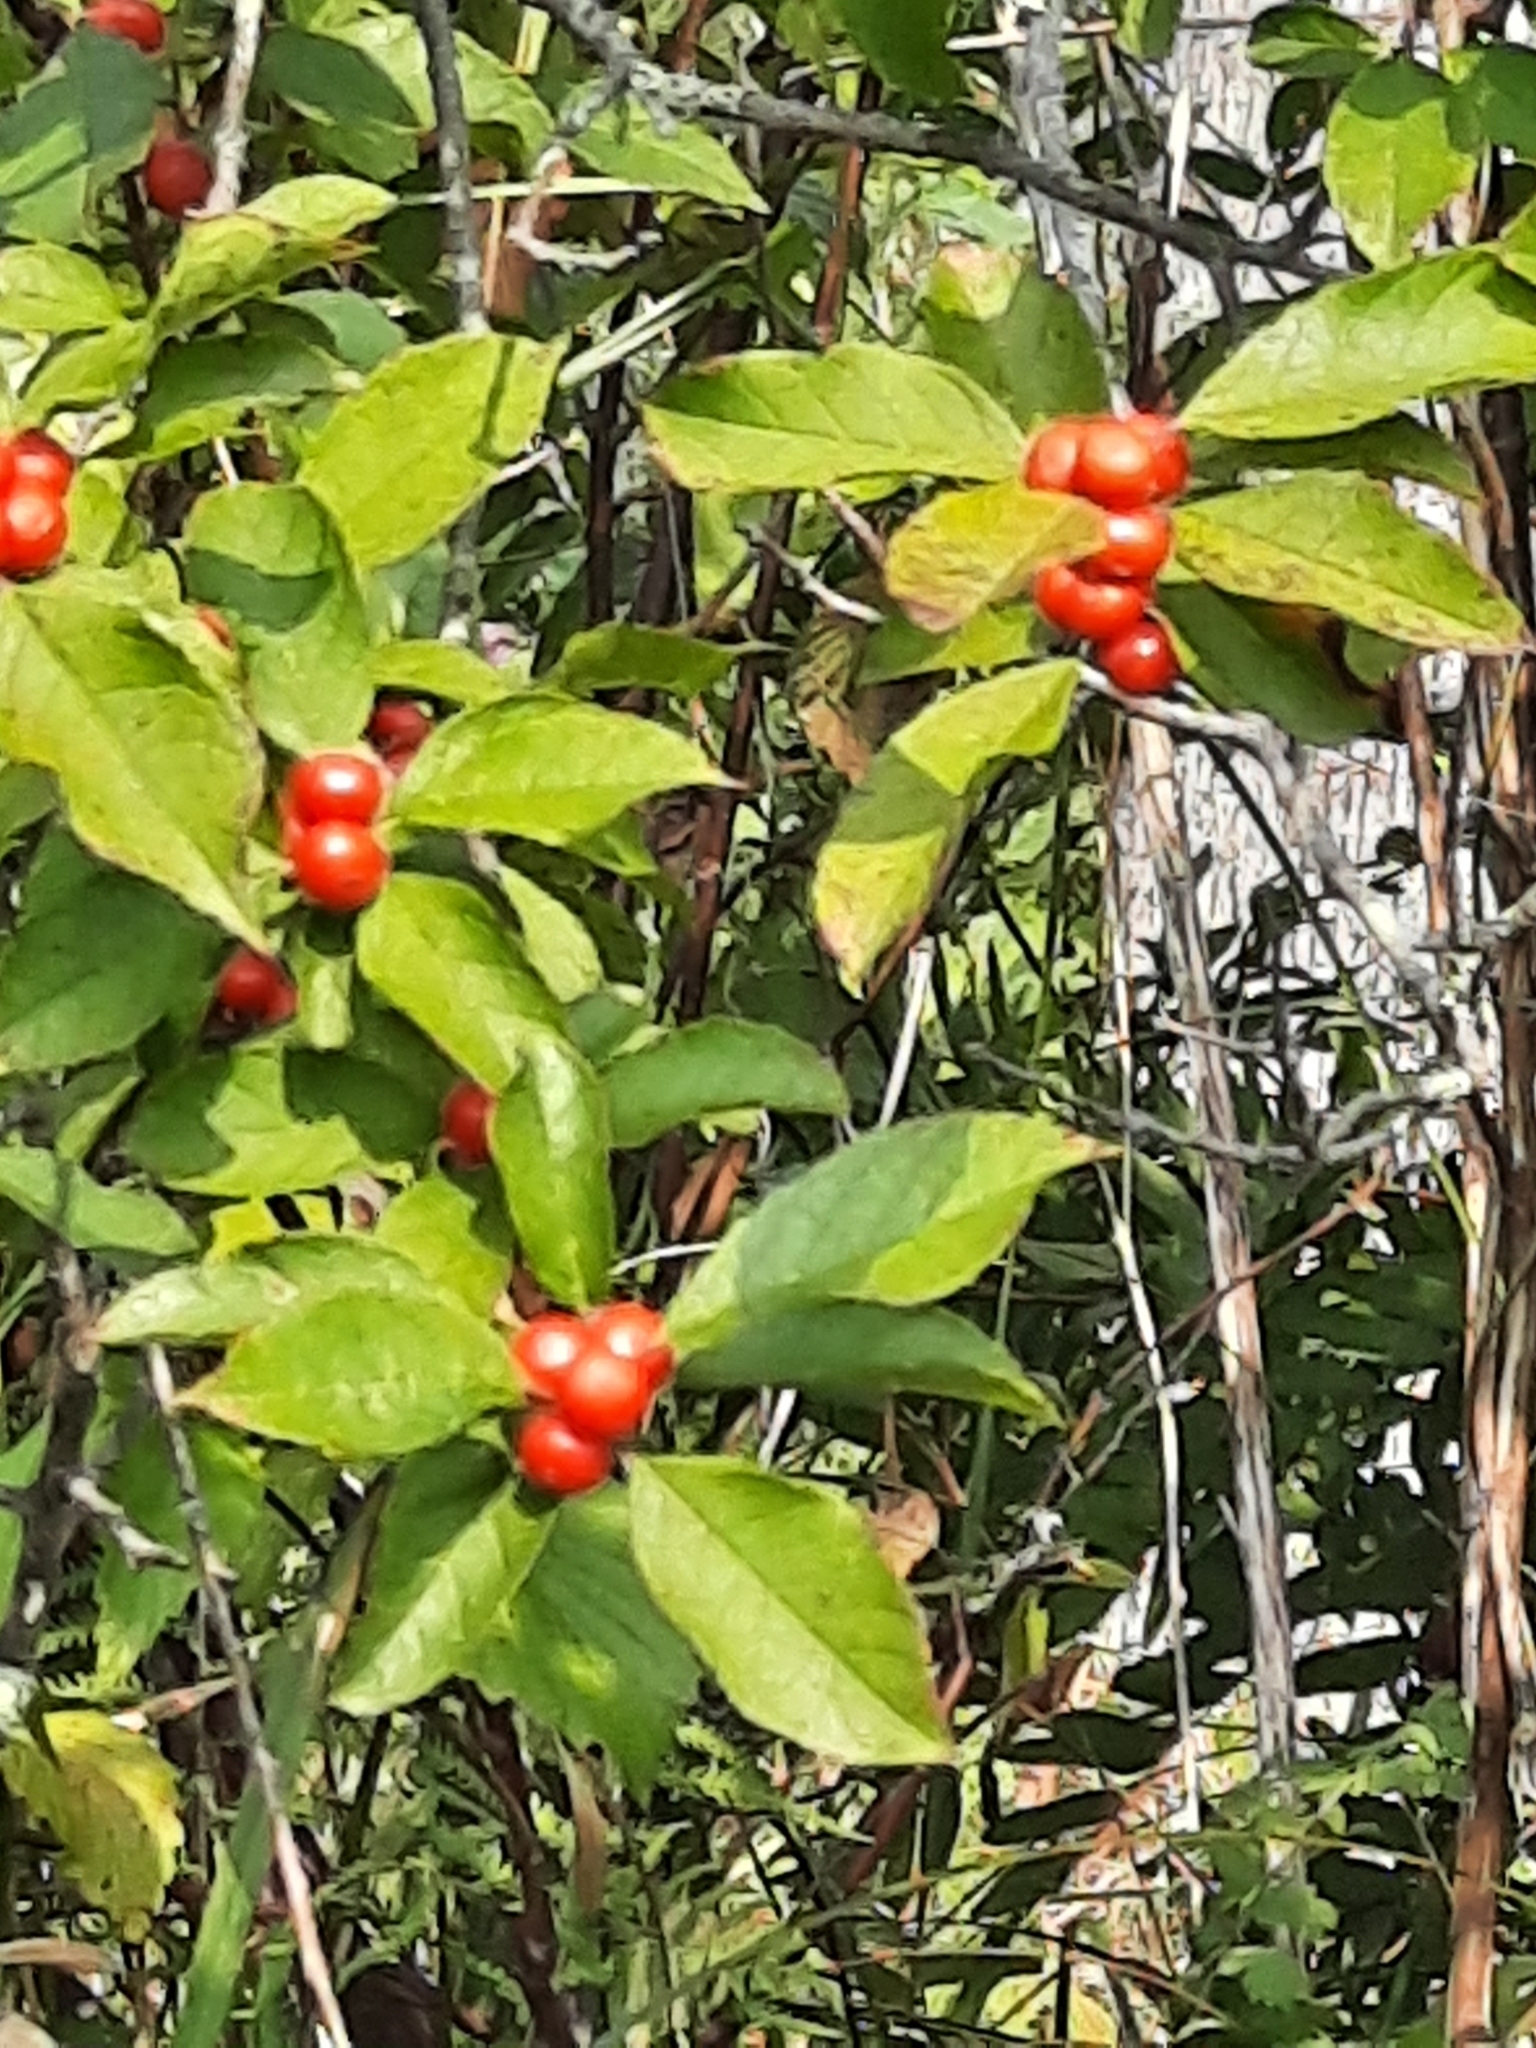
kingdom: Plantae
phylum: Tracheophyta
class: Magnoliopsida
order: Aquifoliales
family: Aquifoliaceae
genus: Ilex
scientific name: Ilex verticillata
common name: Virginia winterberry
